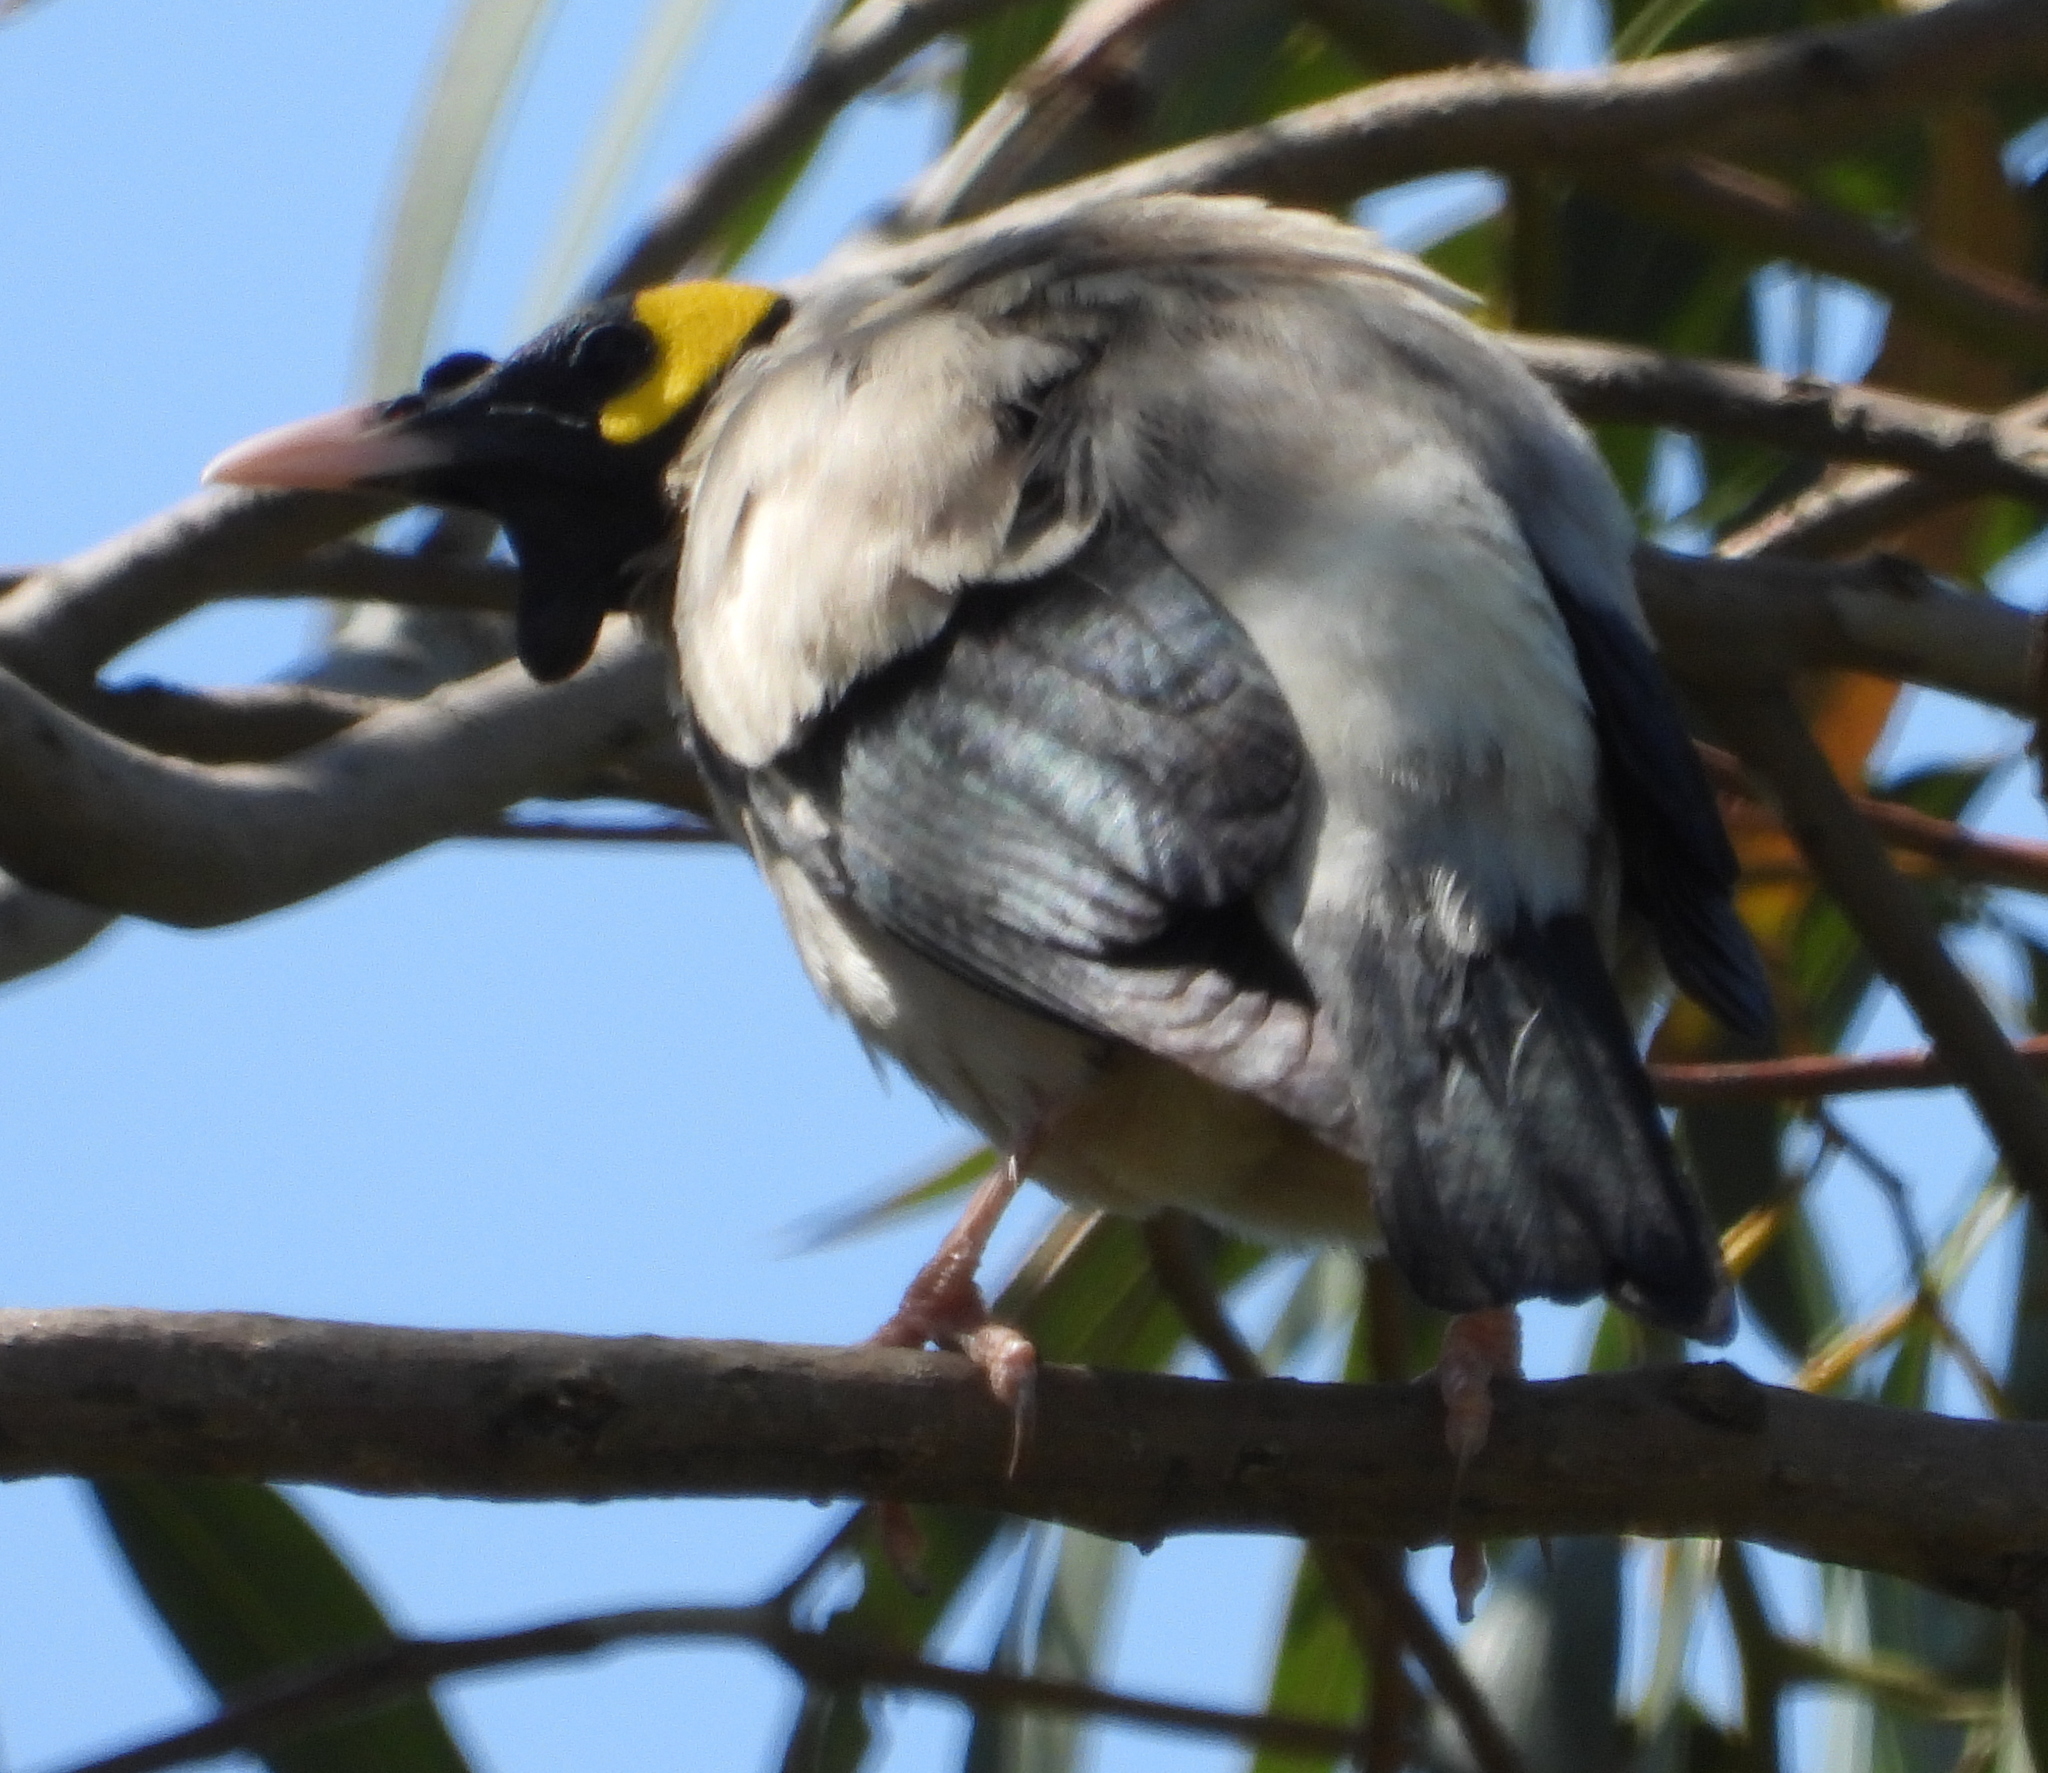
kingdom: Animalia
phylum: Chordata
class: Aves
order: Passeriformes
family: Sturnidae
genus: Creatophora
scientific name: Creatophora cinerea
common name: Wattled starling
